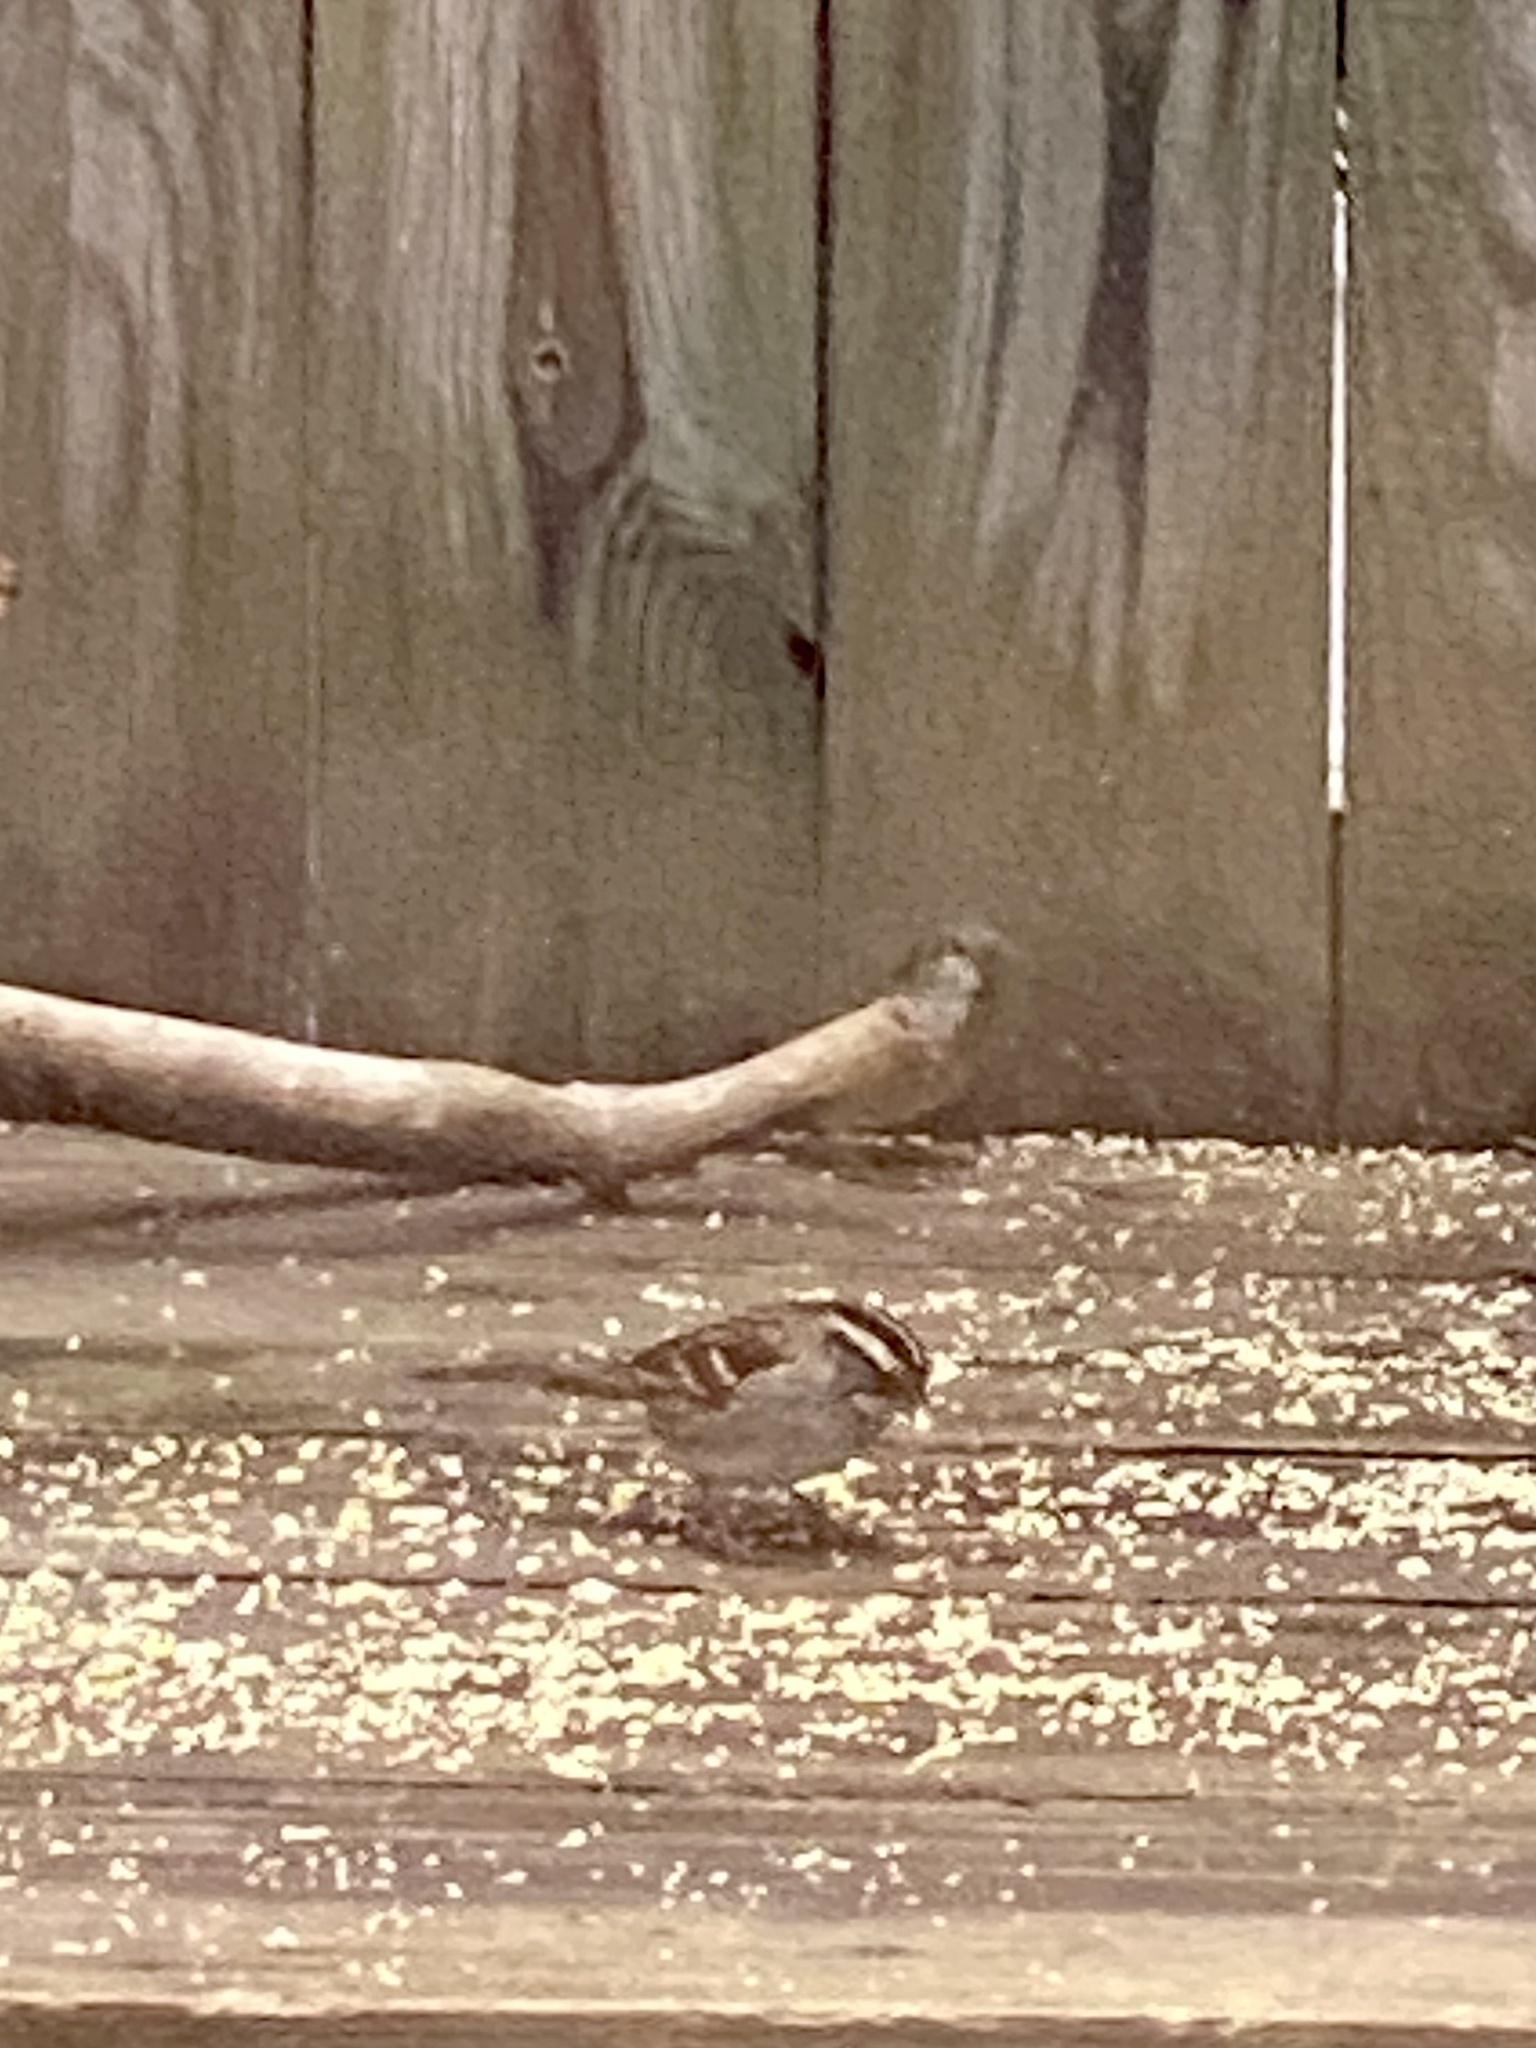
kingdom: Animalia
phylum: Chordata
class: Aves
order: Passeriformes
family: Passerellidae
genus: Zonotrichia
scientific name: Zonotrichia albicollis
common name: White-throated sparrow
